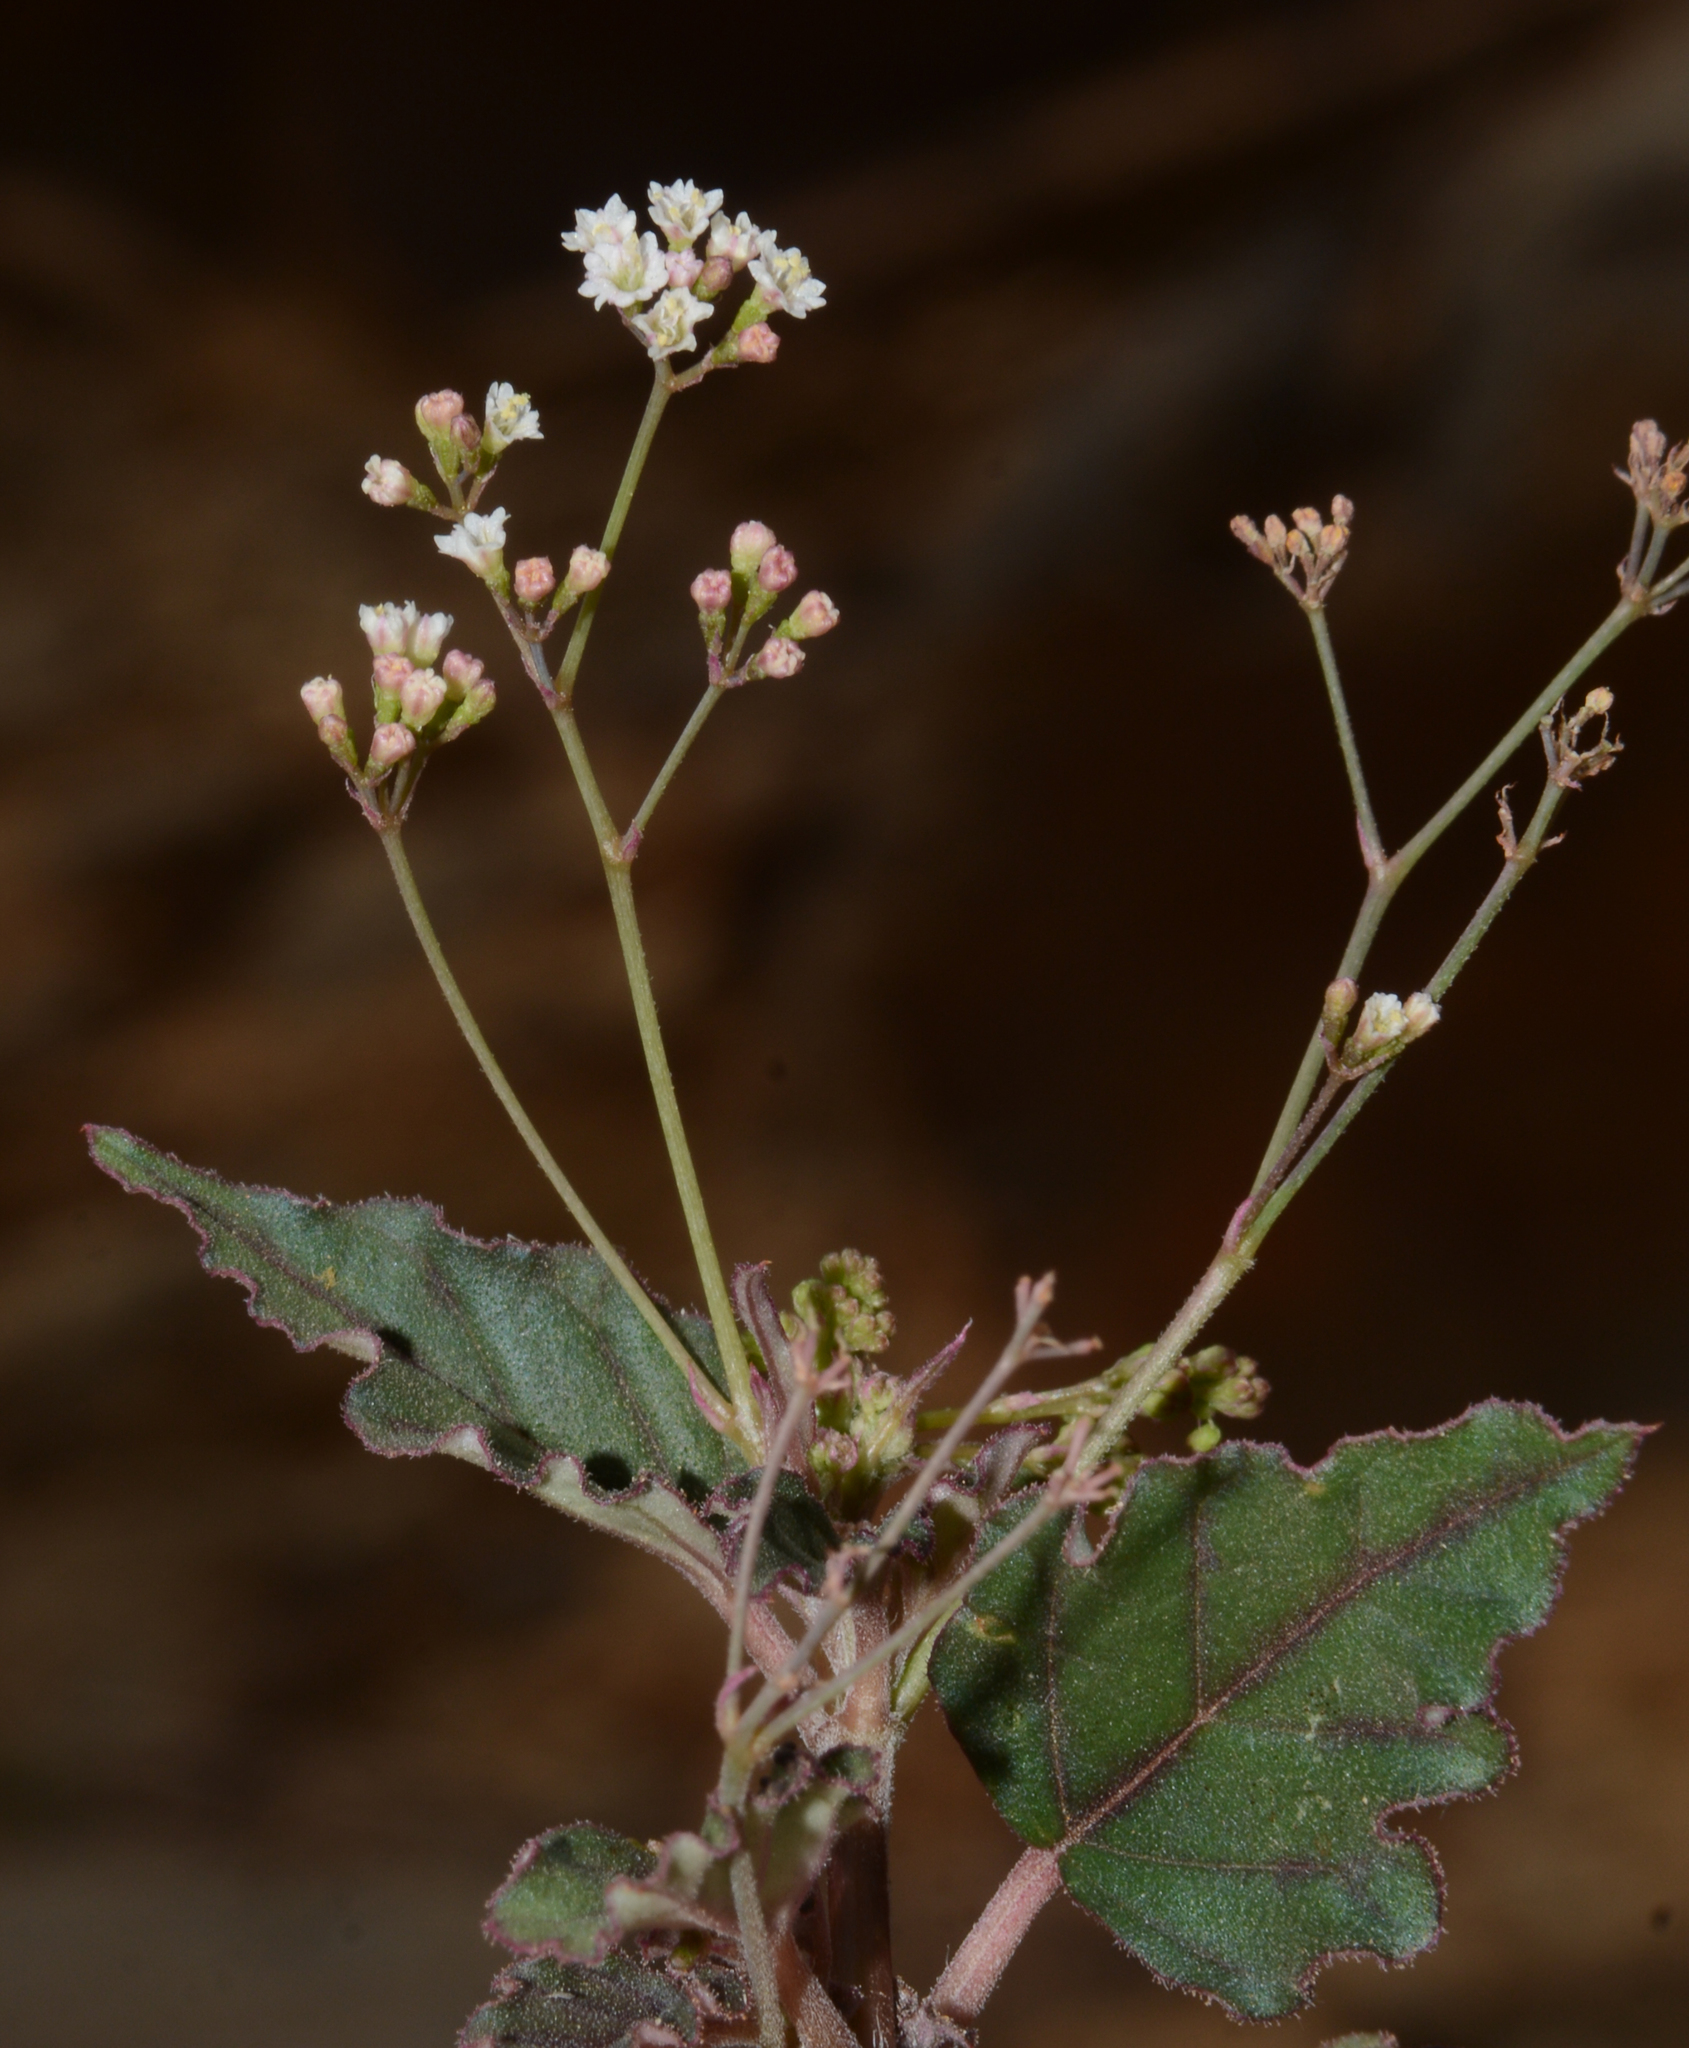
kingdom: Plantae
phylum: Tracheophyta
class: Magnoliopsida
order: Caryophyllales
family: Nyctaginaceae
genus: Boerhavia
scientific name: Boerhavia erecta
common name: Erect spiderling
